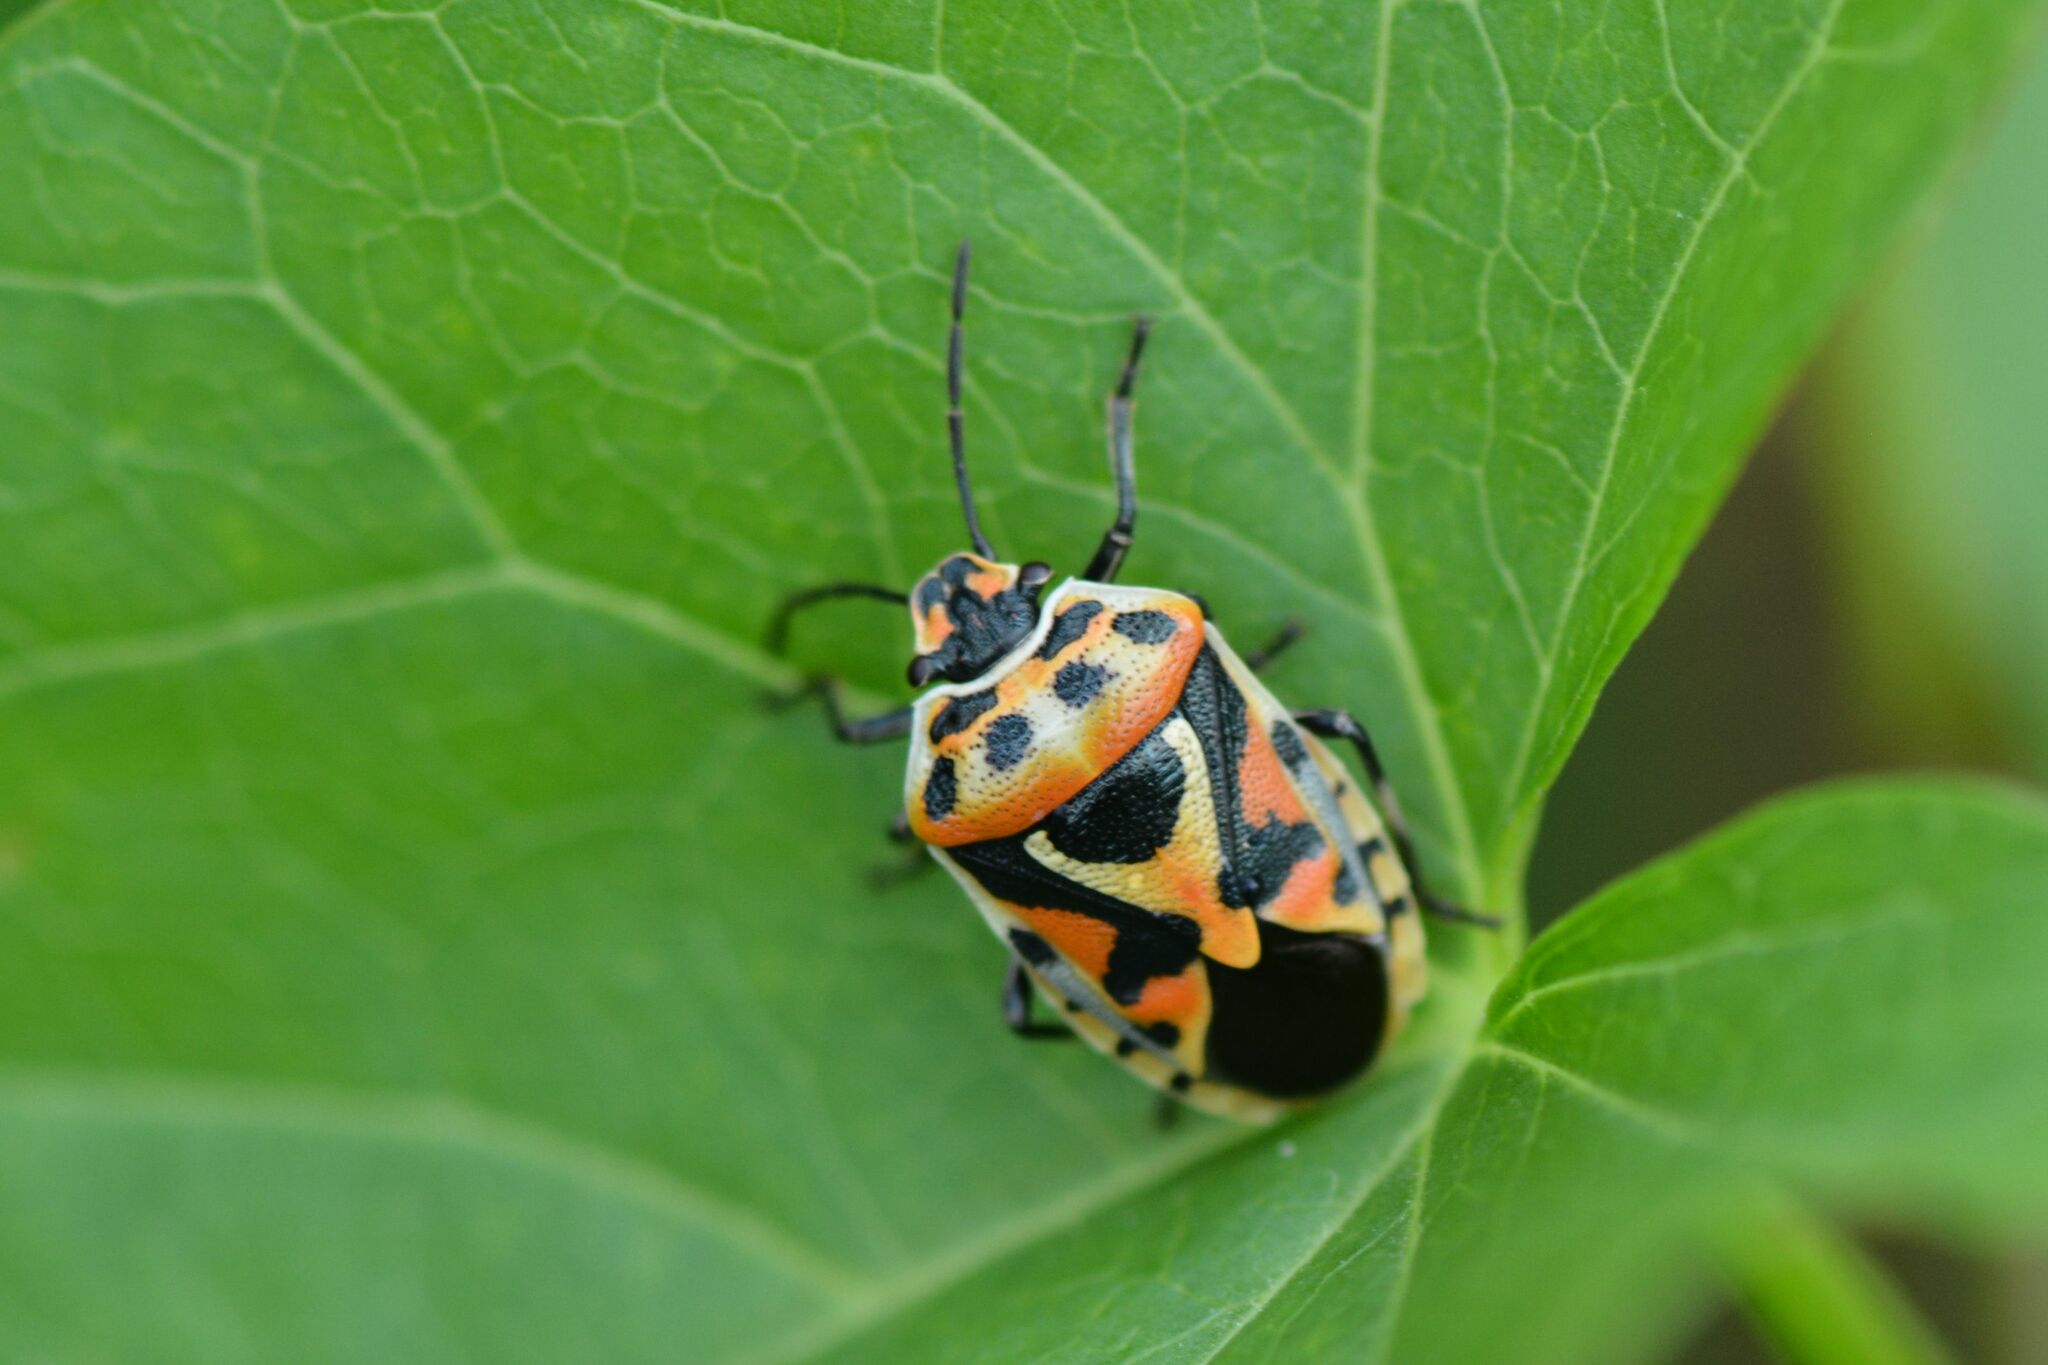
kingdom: Animalia
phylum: Arthropoda
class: Insecta
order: Hemiptera
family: Pentatomidae
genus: Eurydema
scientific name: Eurydema ornata
